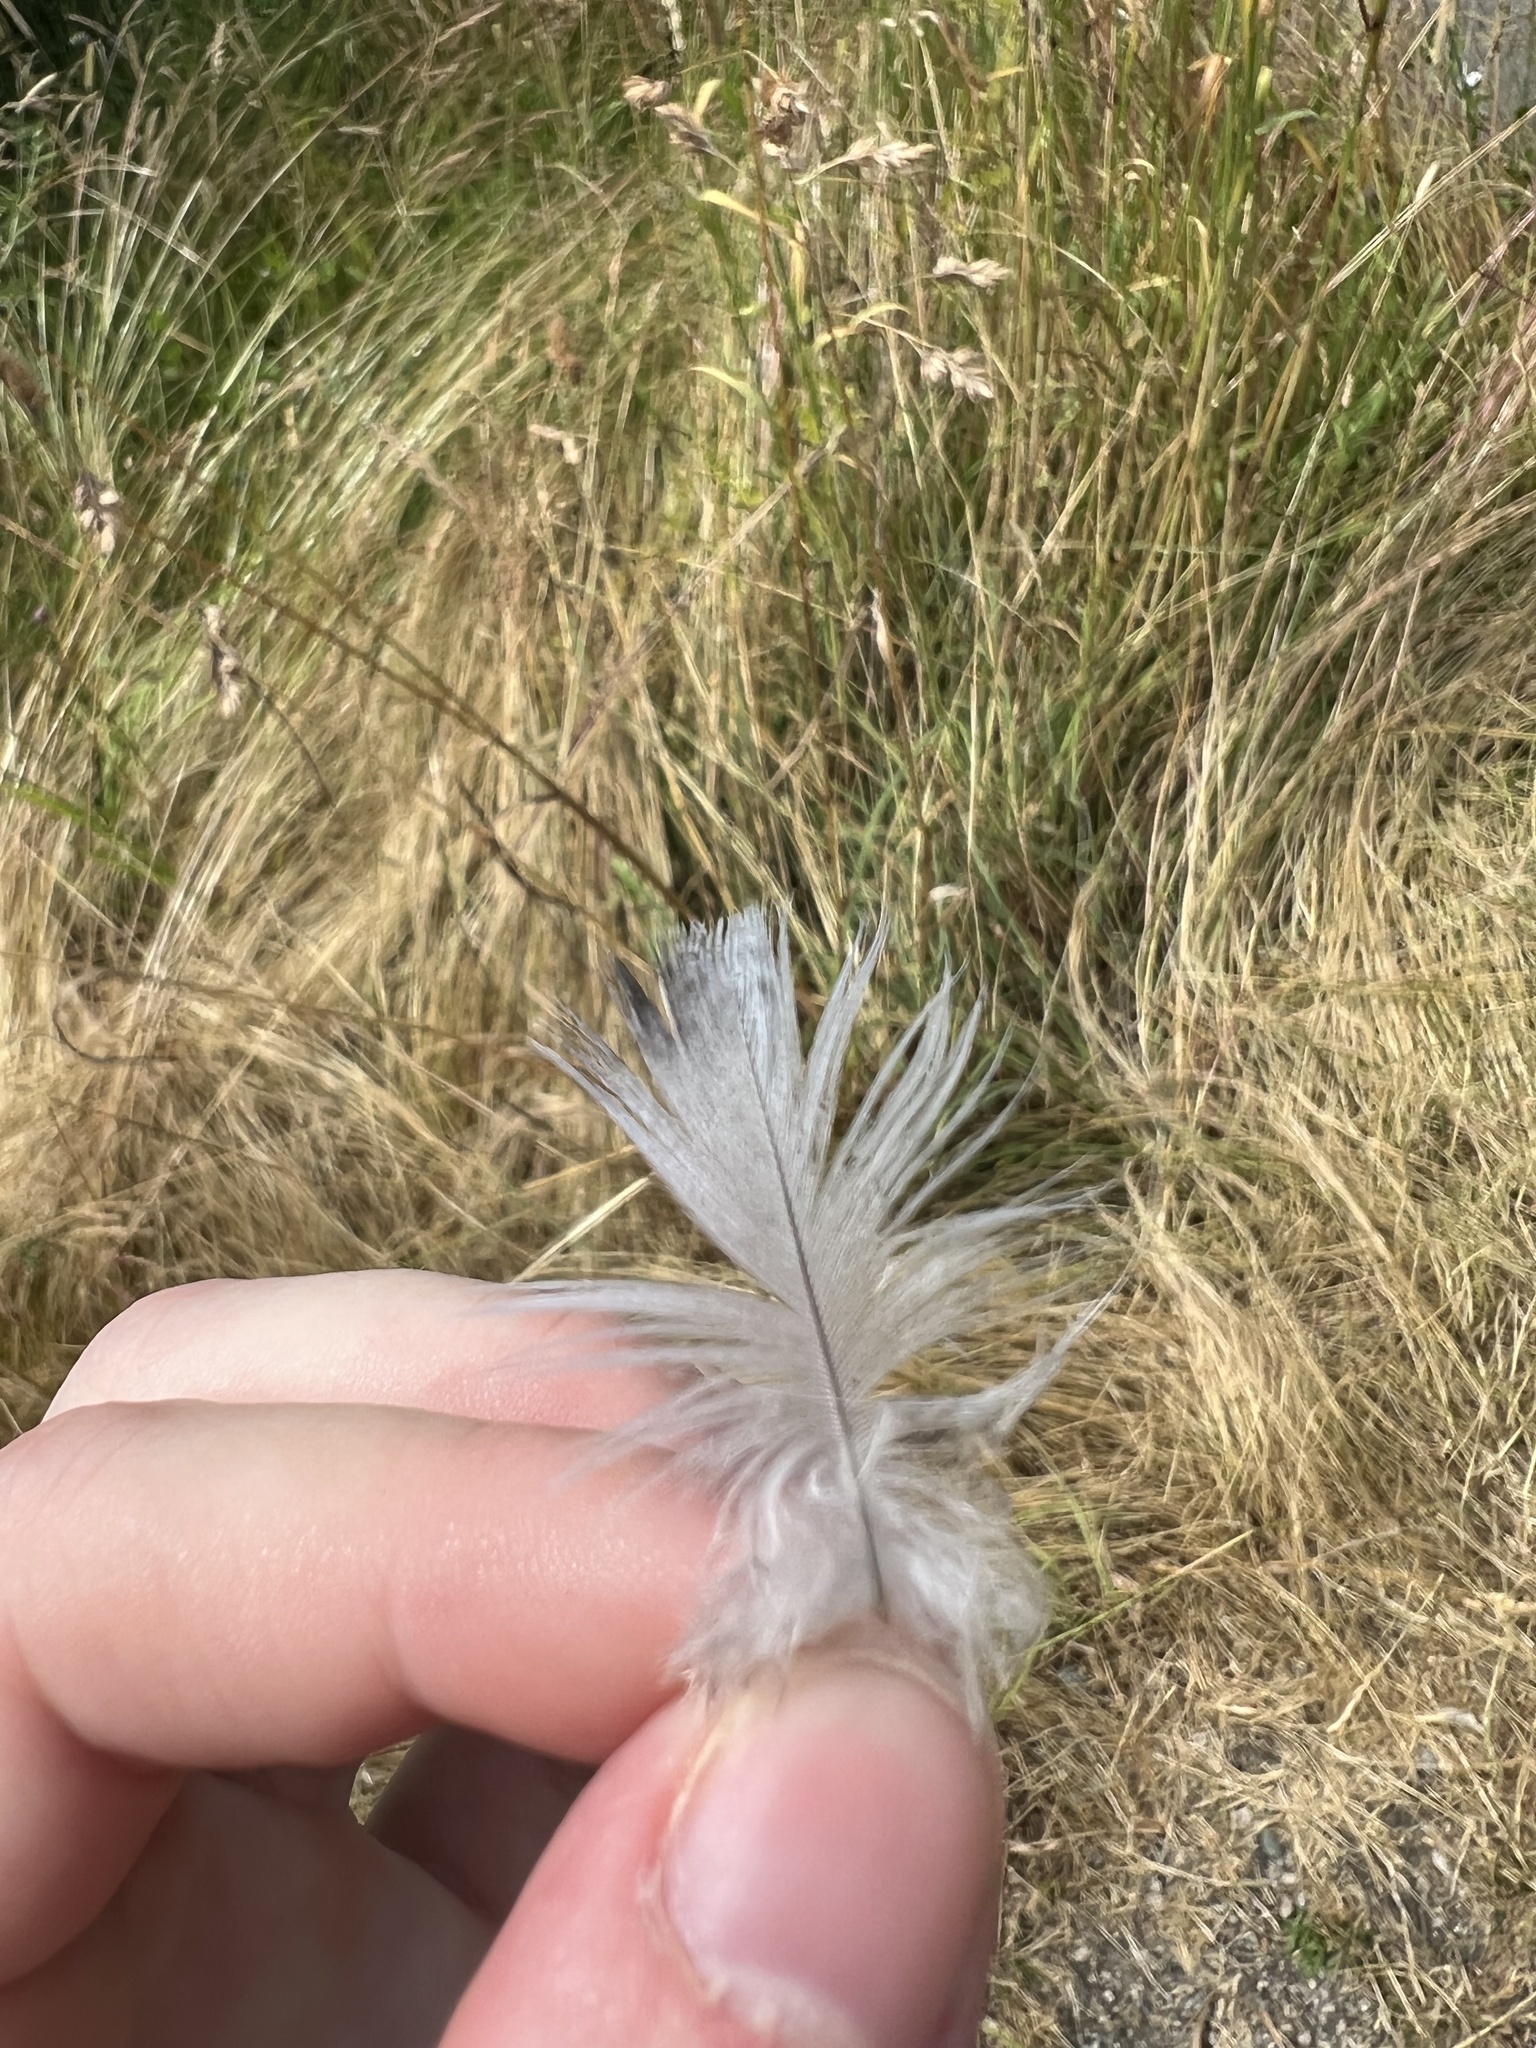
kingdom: Animalia
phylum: Chordata
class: Aves
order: Columbiformes
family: Columbidae
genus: Columba
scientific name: Columba livia
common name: Rock pigeon
